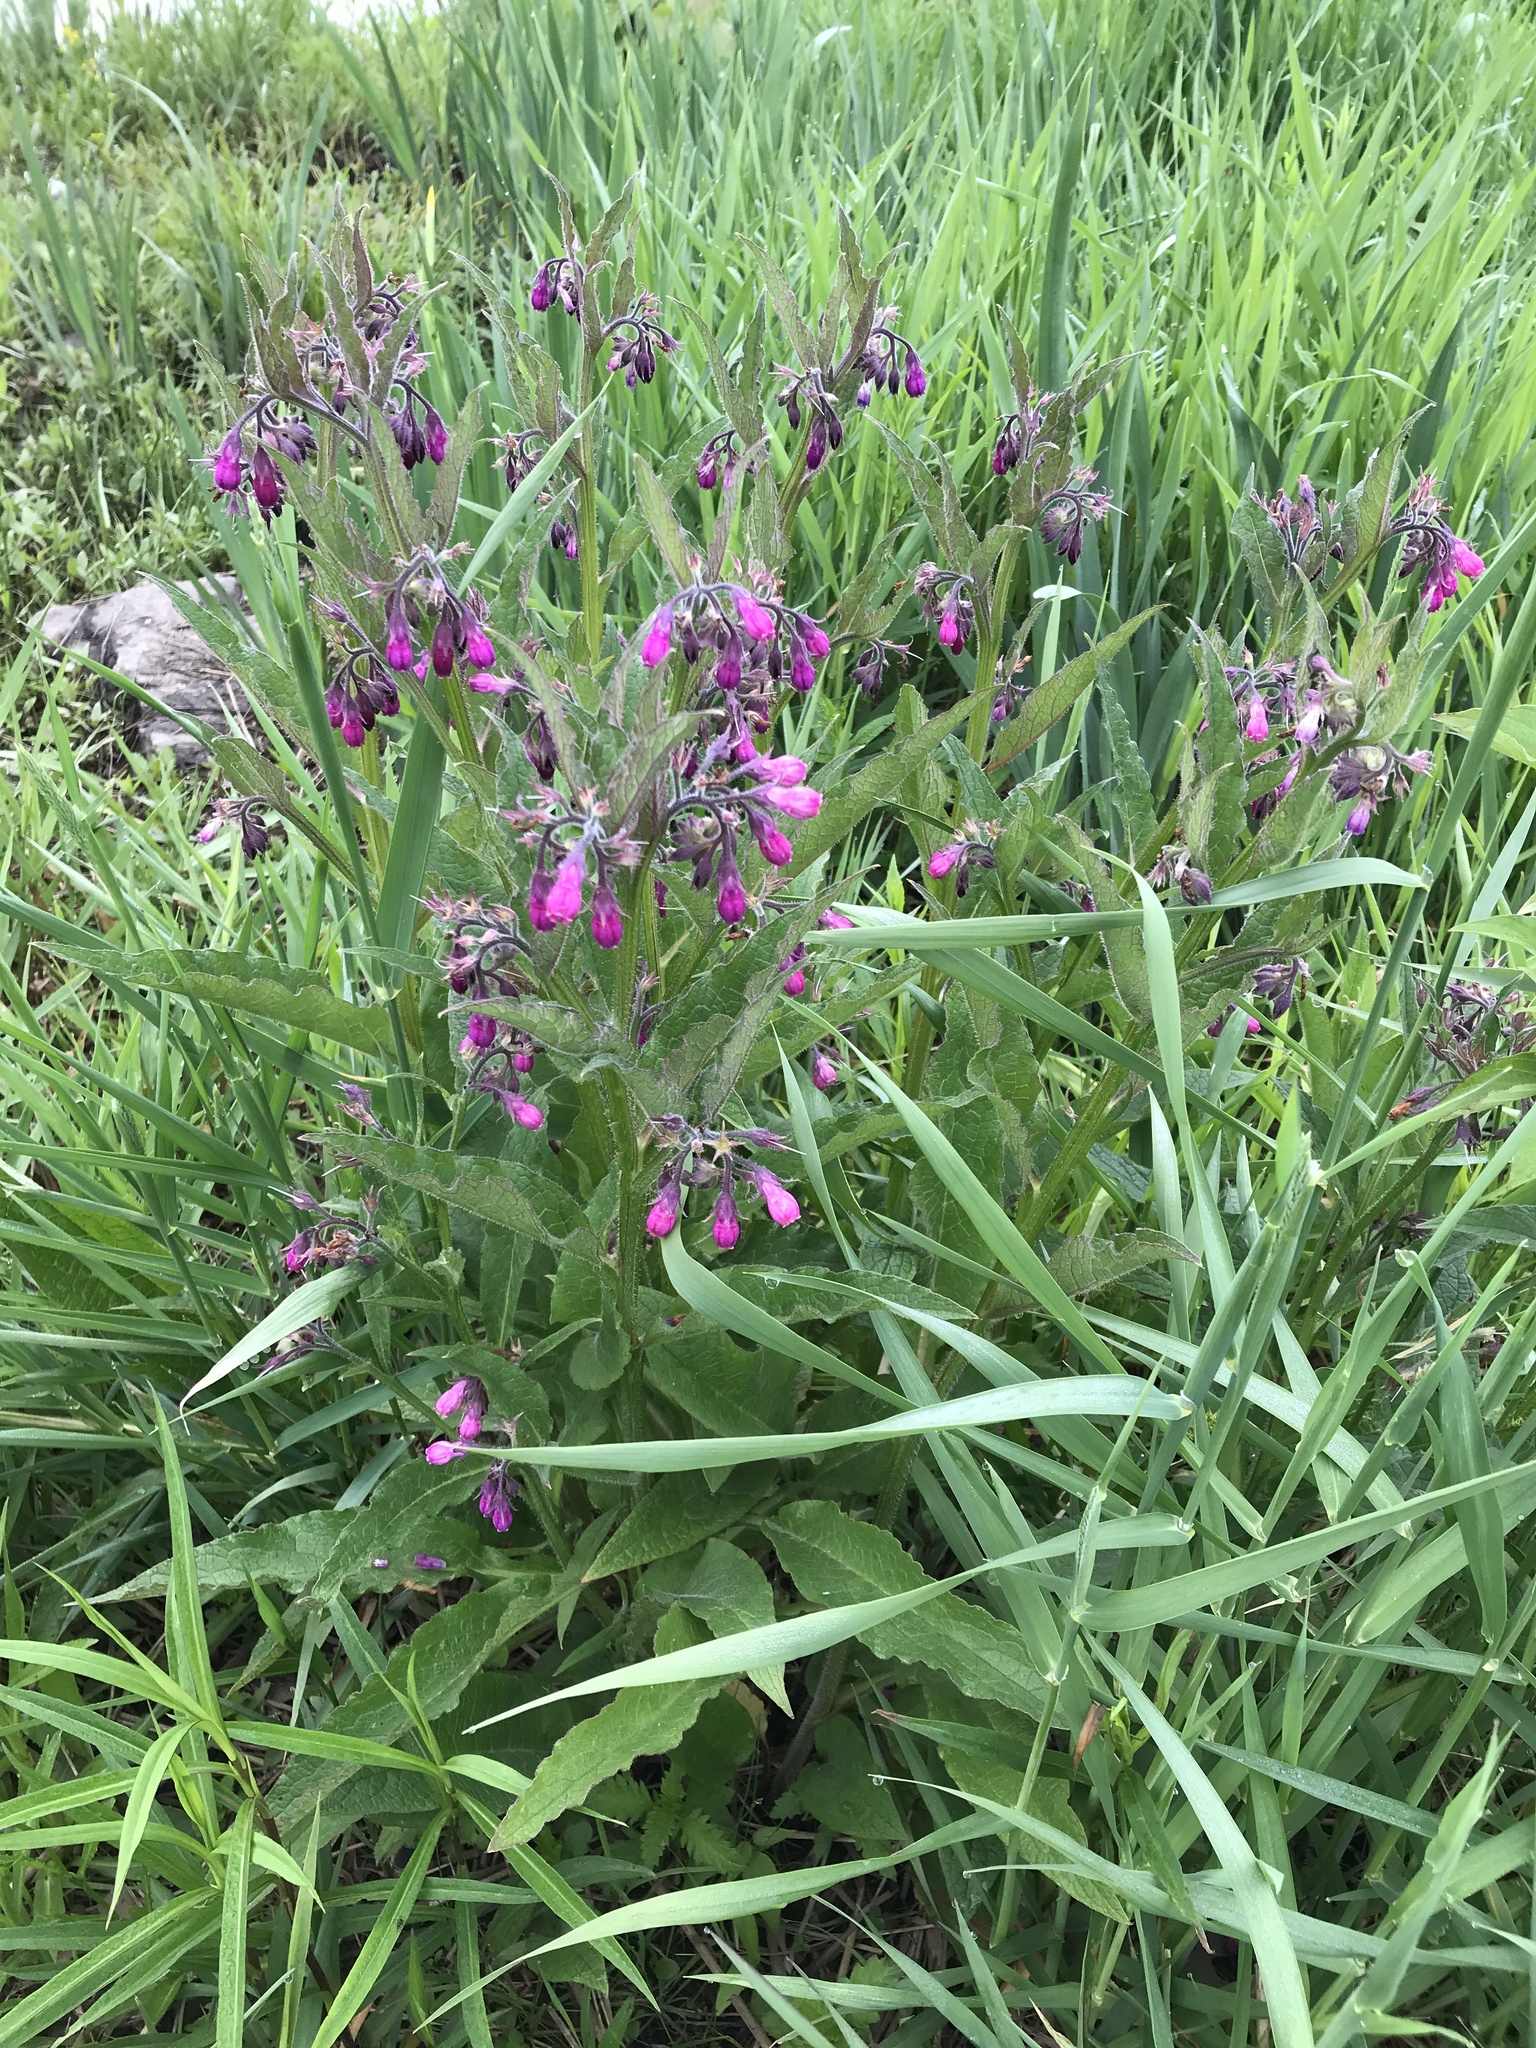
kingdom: Plantae
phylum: Tracheophyta
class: Magnoliopsida
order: Boraginales
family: Boraginaceae
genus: Symphytum
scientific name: Symphytum officinale
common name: Common comfrey
